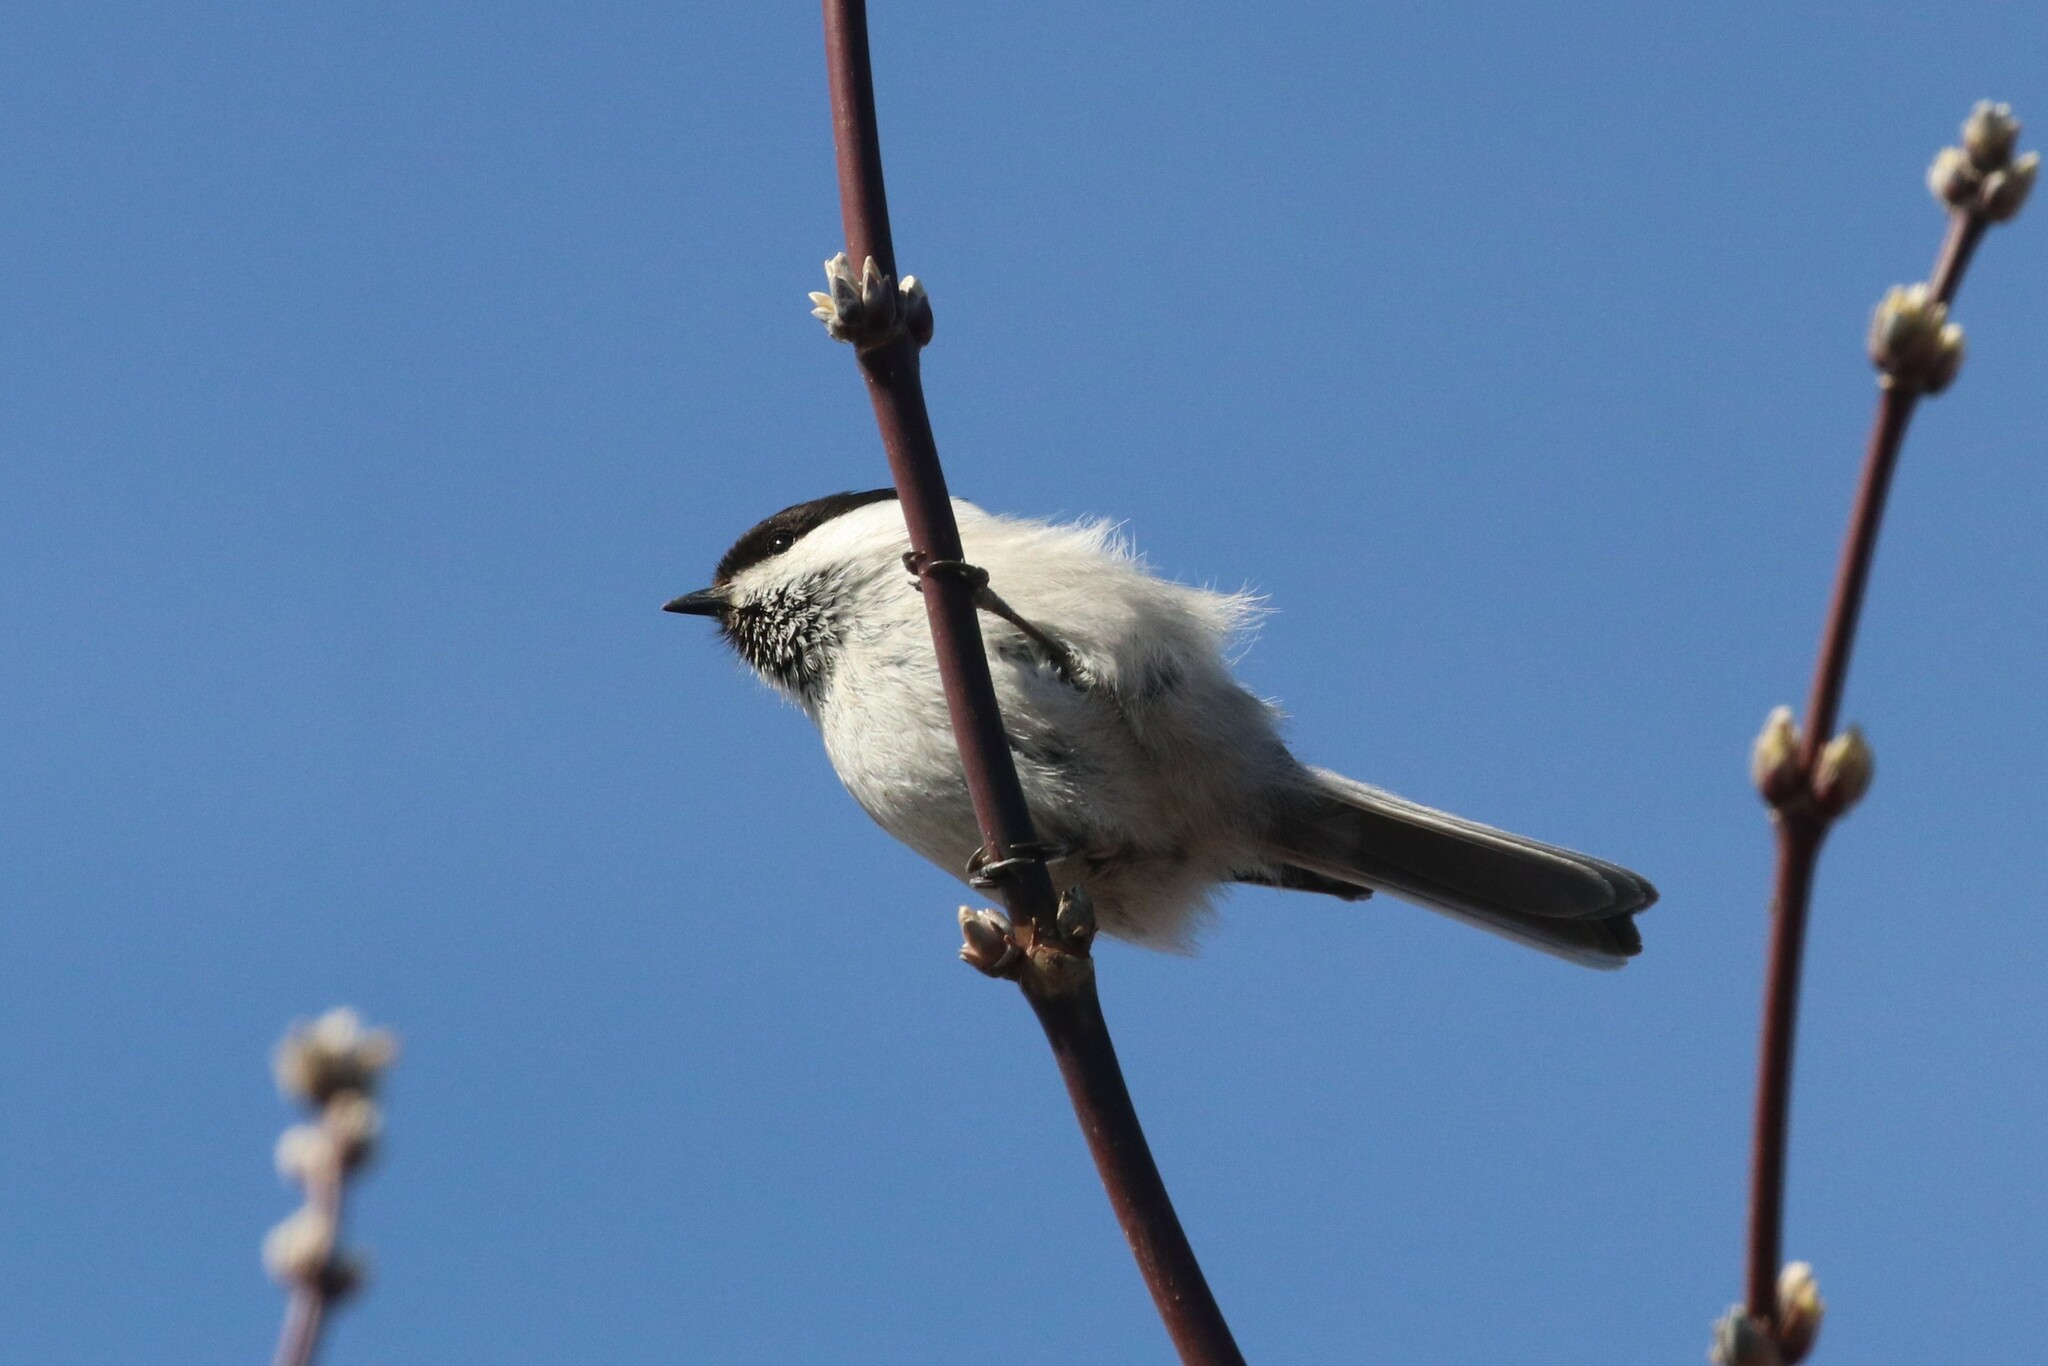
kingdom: Animalia
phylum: Chordata
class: Aves
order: Passeriformes
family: Paridae
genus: Poecile
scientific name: Poecile montanus
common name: Willow tit
